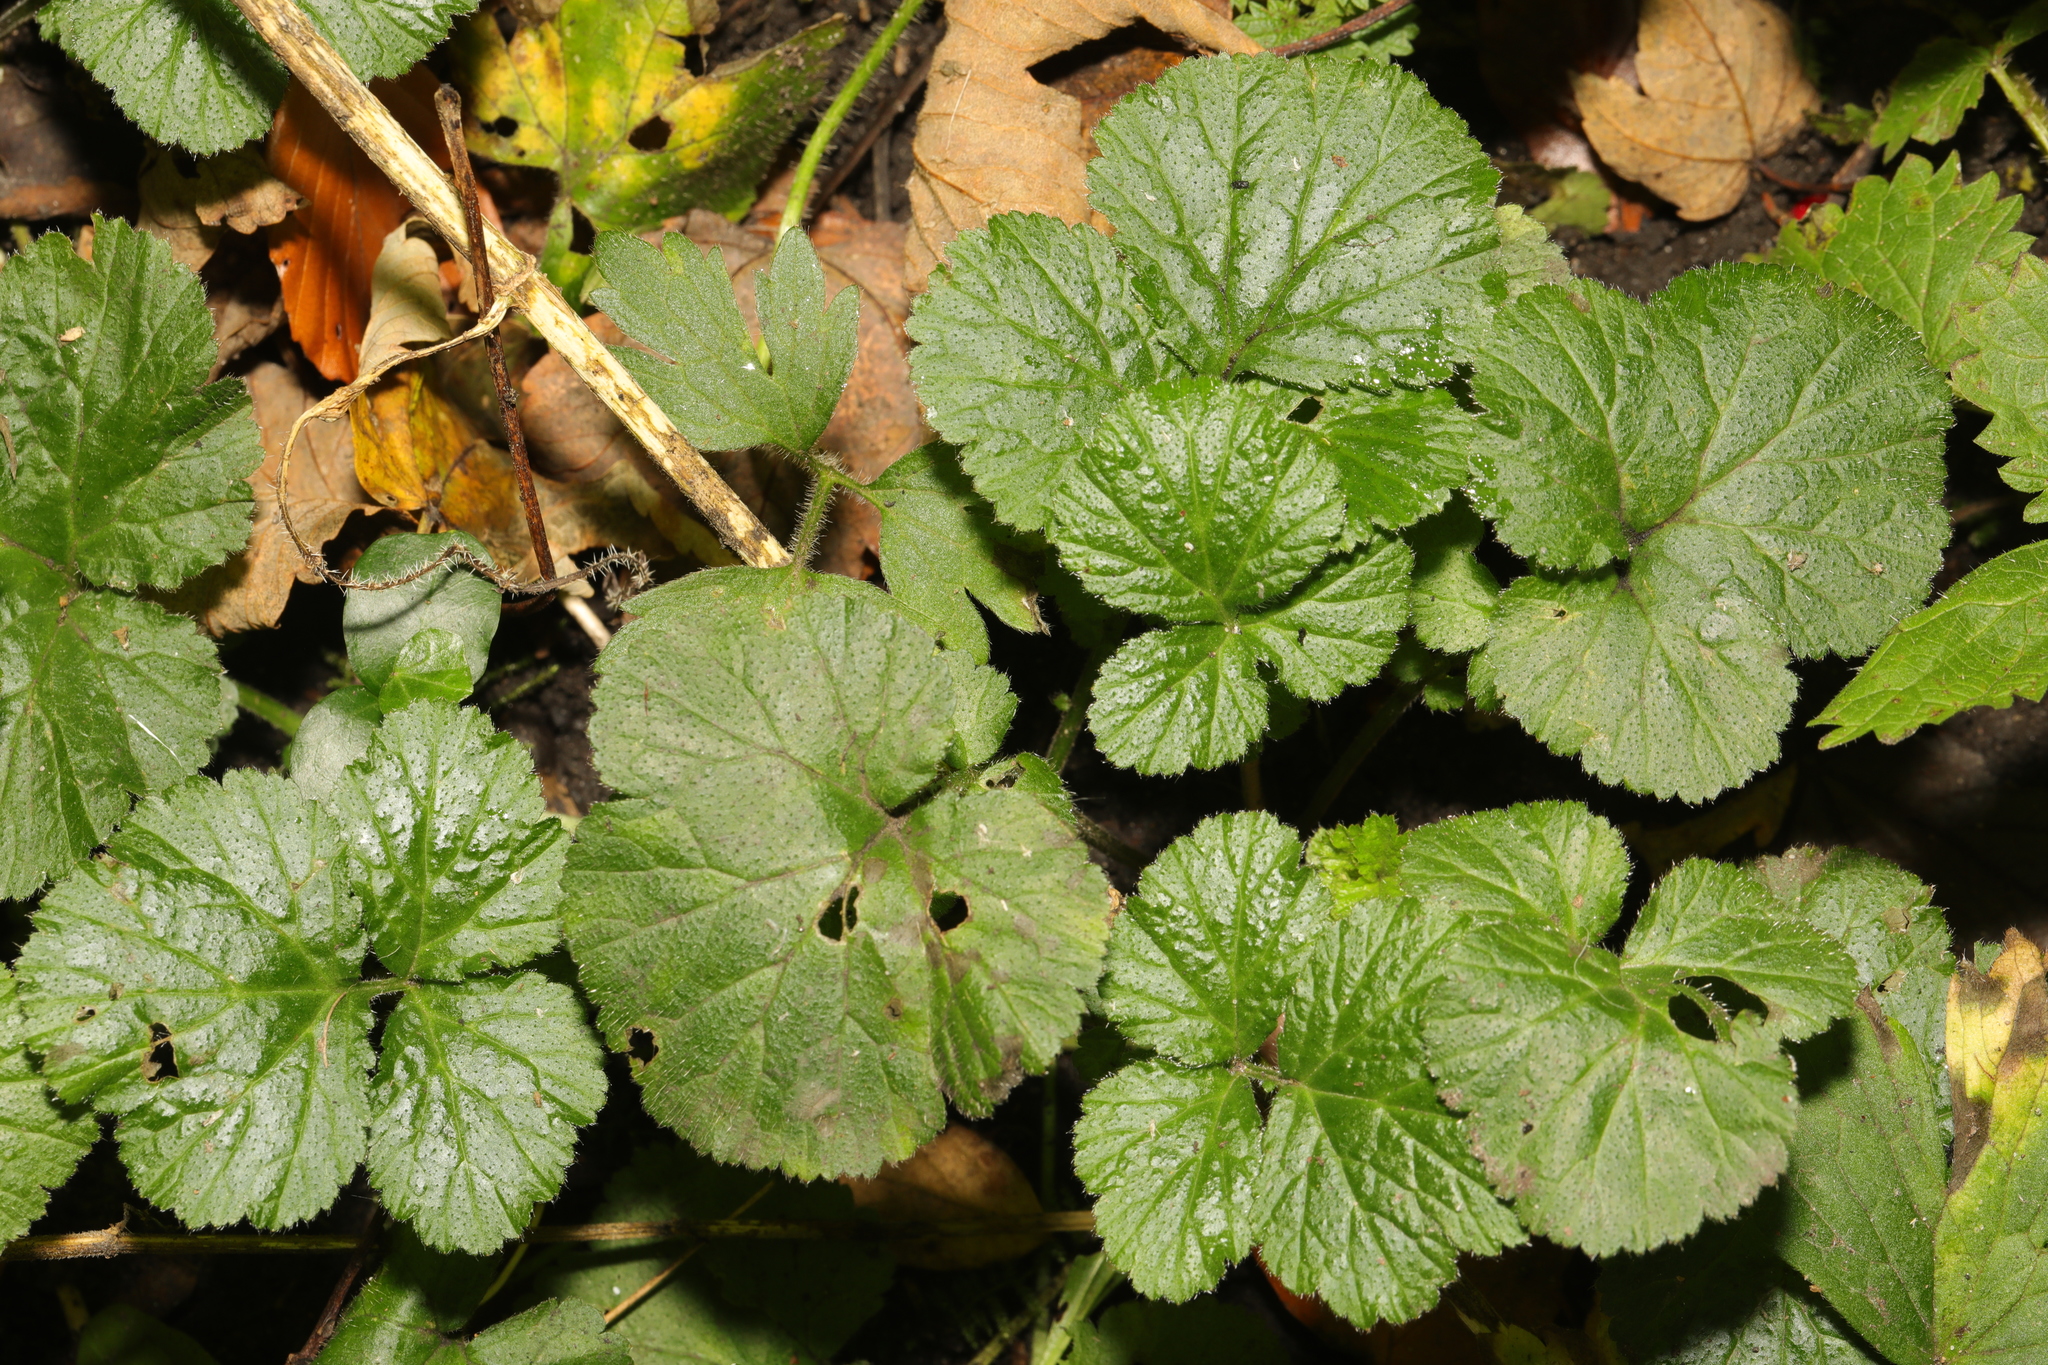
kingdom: Plantae
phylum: Tracheophyta
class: Magnoliopsida
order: Rosales
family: Rosaceae
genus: Geum
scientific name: Geum urbanum
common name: Wood avens
